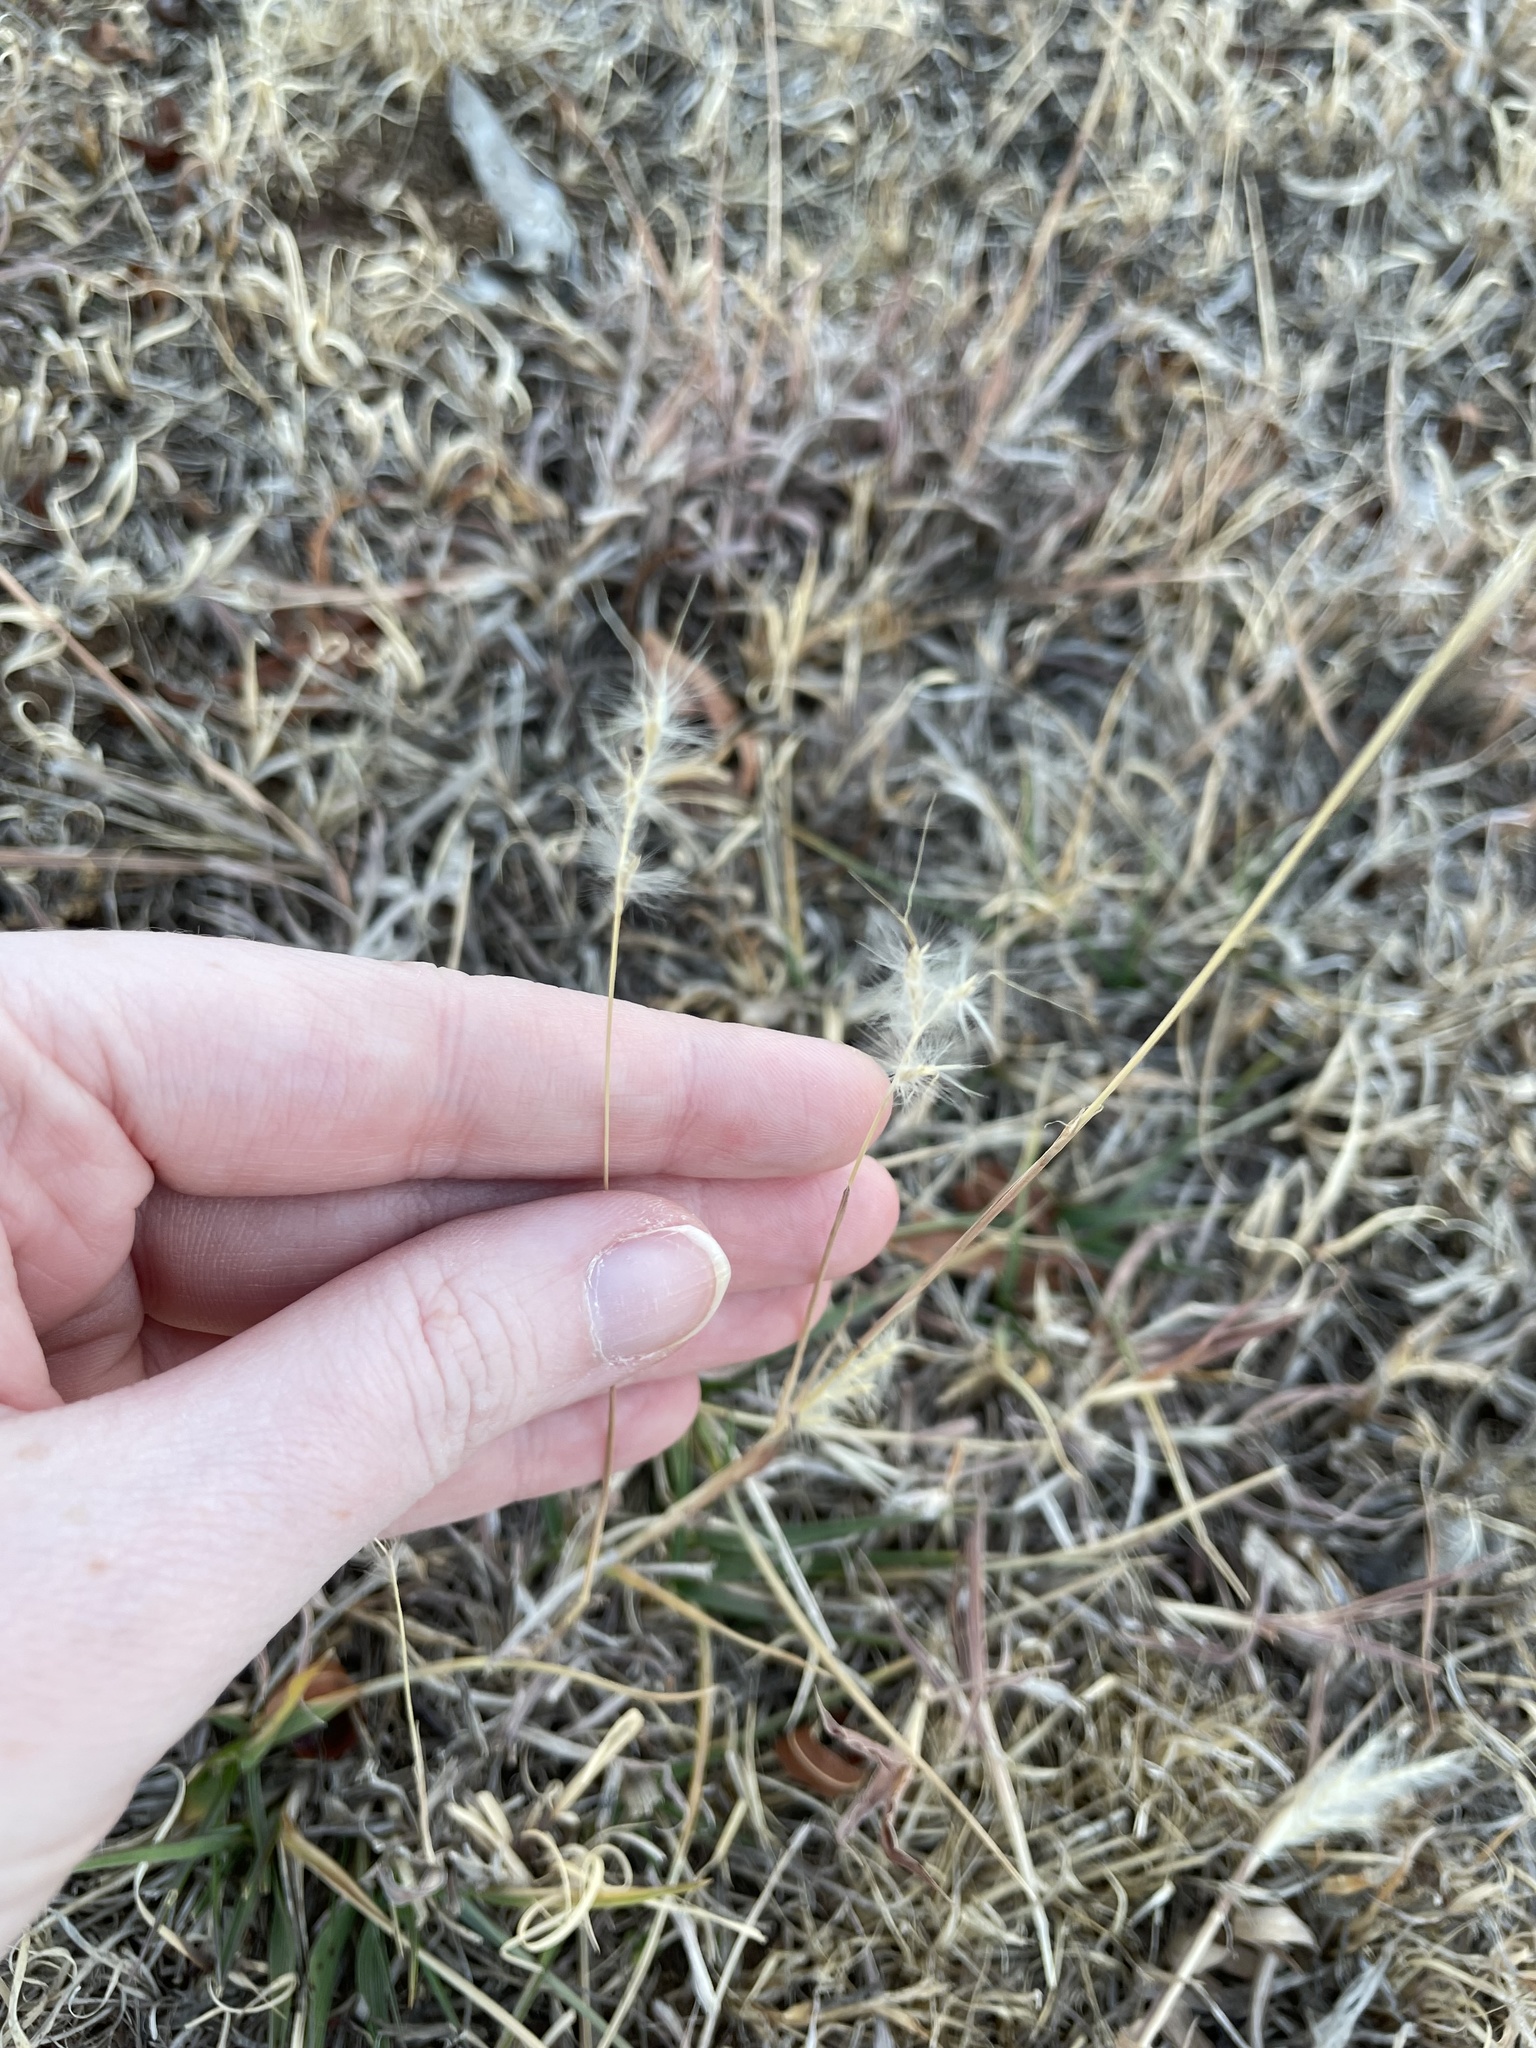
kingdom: Plantae
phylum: Tracheophyta
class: Liliopsida
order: Poales
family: Poaceae
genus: Bothriochloa
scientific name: Bothriochloa torreyana
